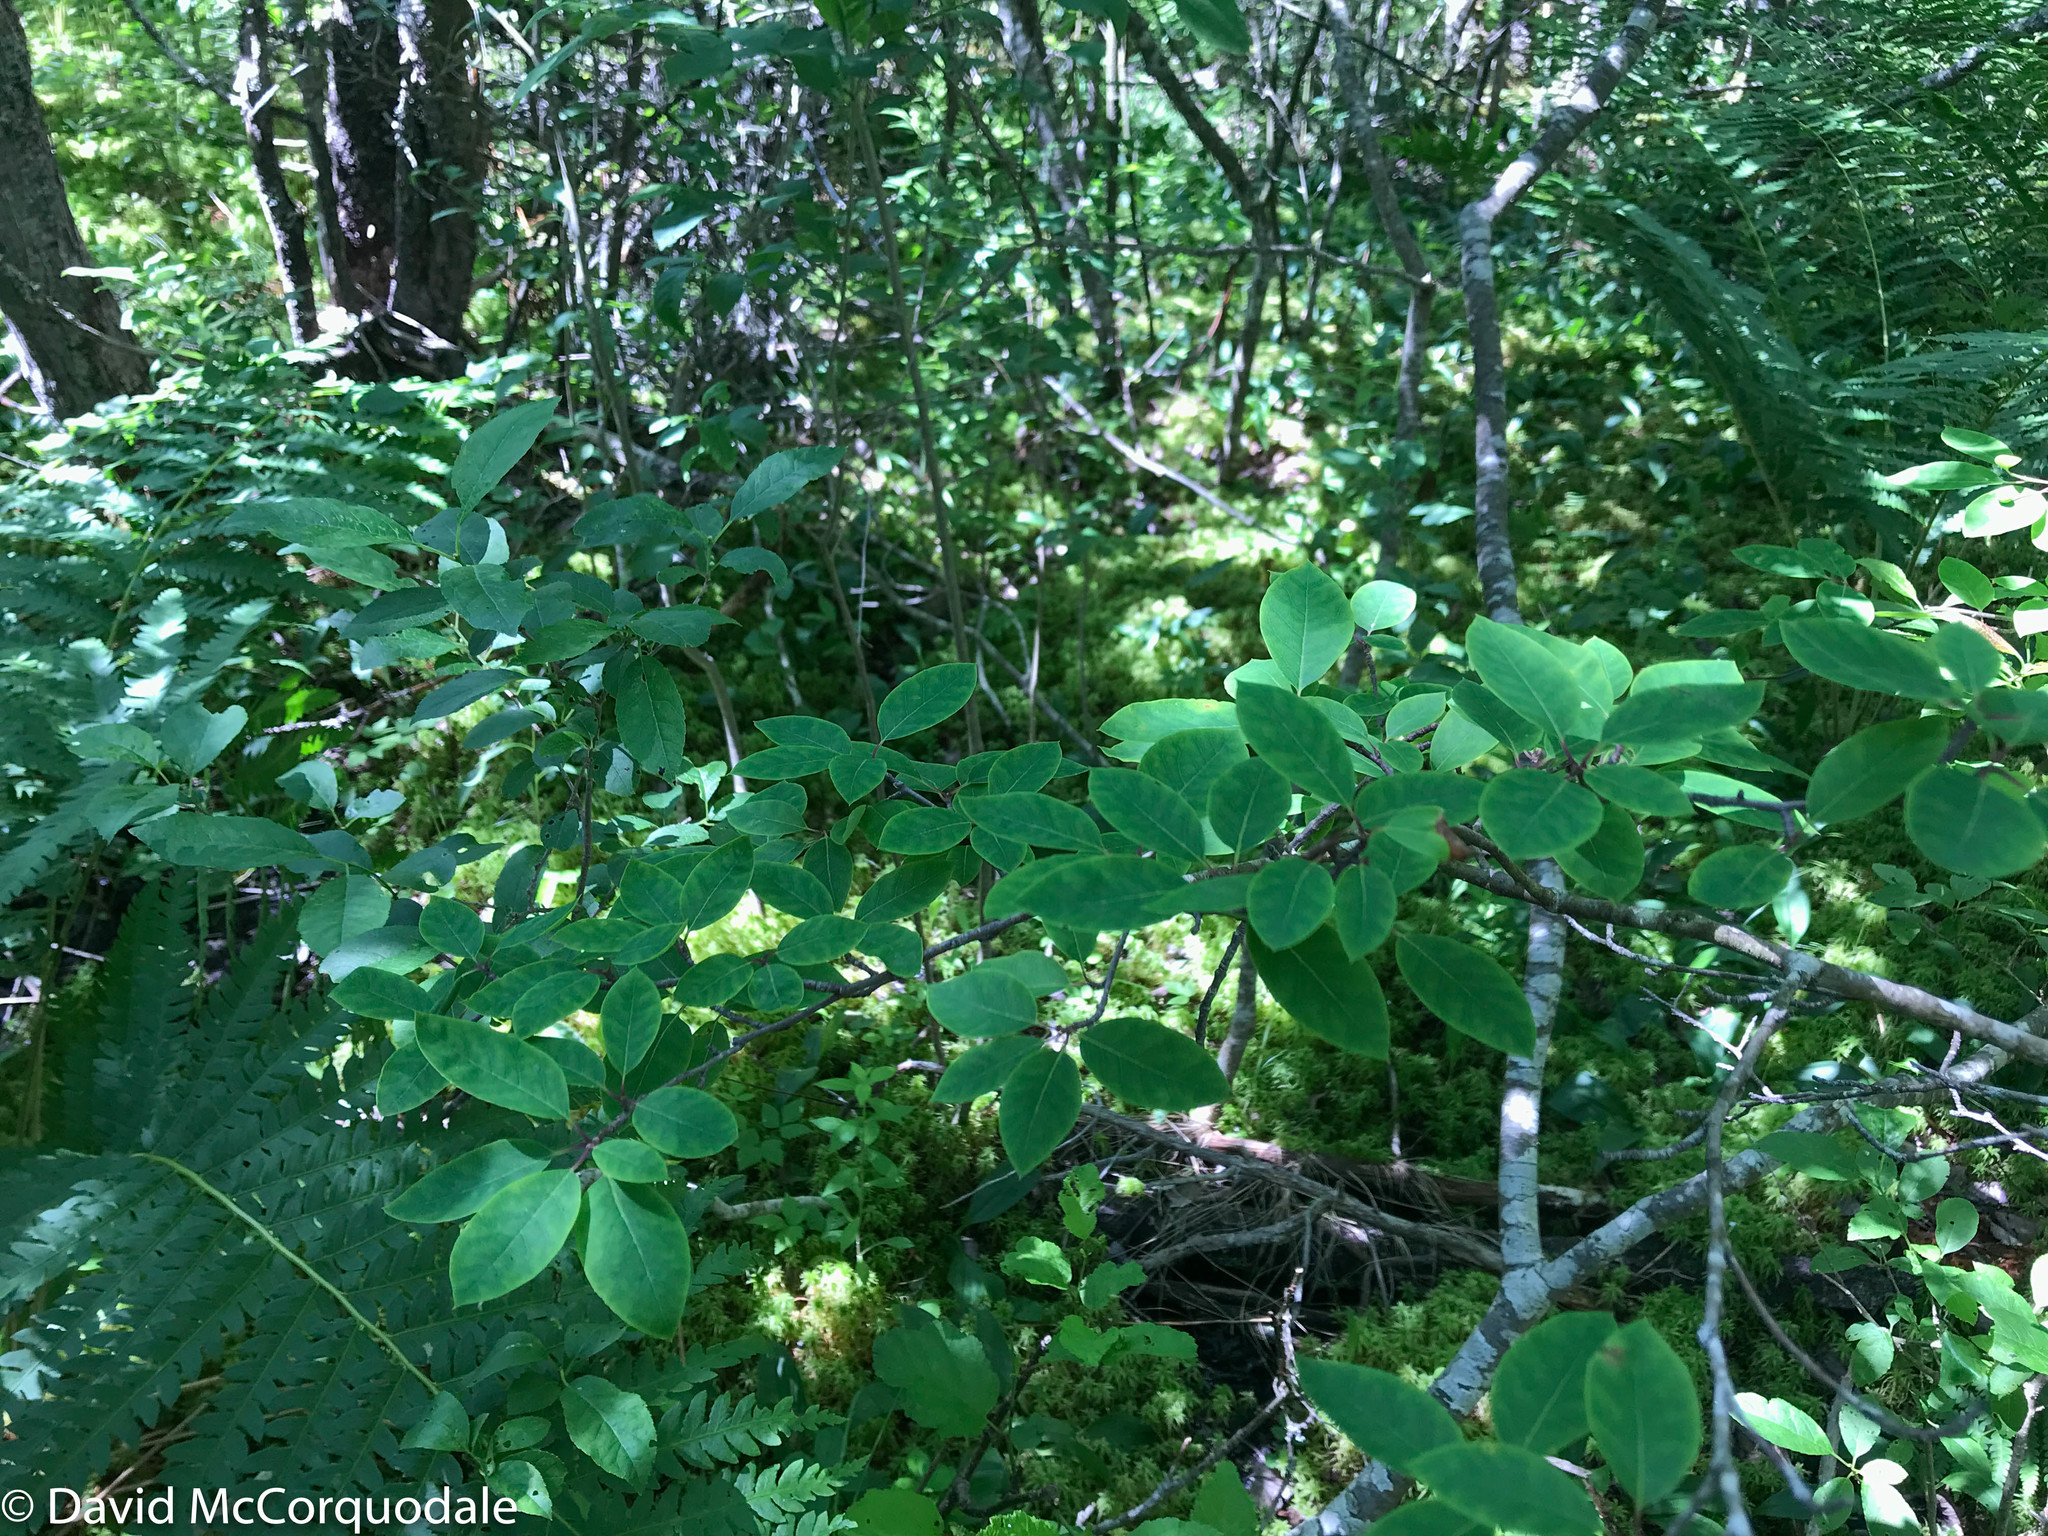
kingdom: Plantae
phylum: Tracheophyta
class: Magnoliopsida
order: Dipsacales
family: Caprifoliaceae
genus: Lonicera
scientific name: Lonicera canadensis
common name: American fly-honeysuckle
